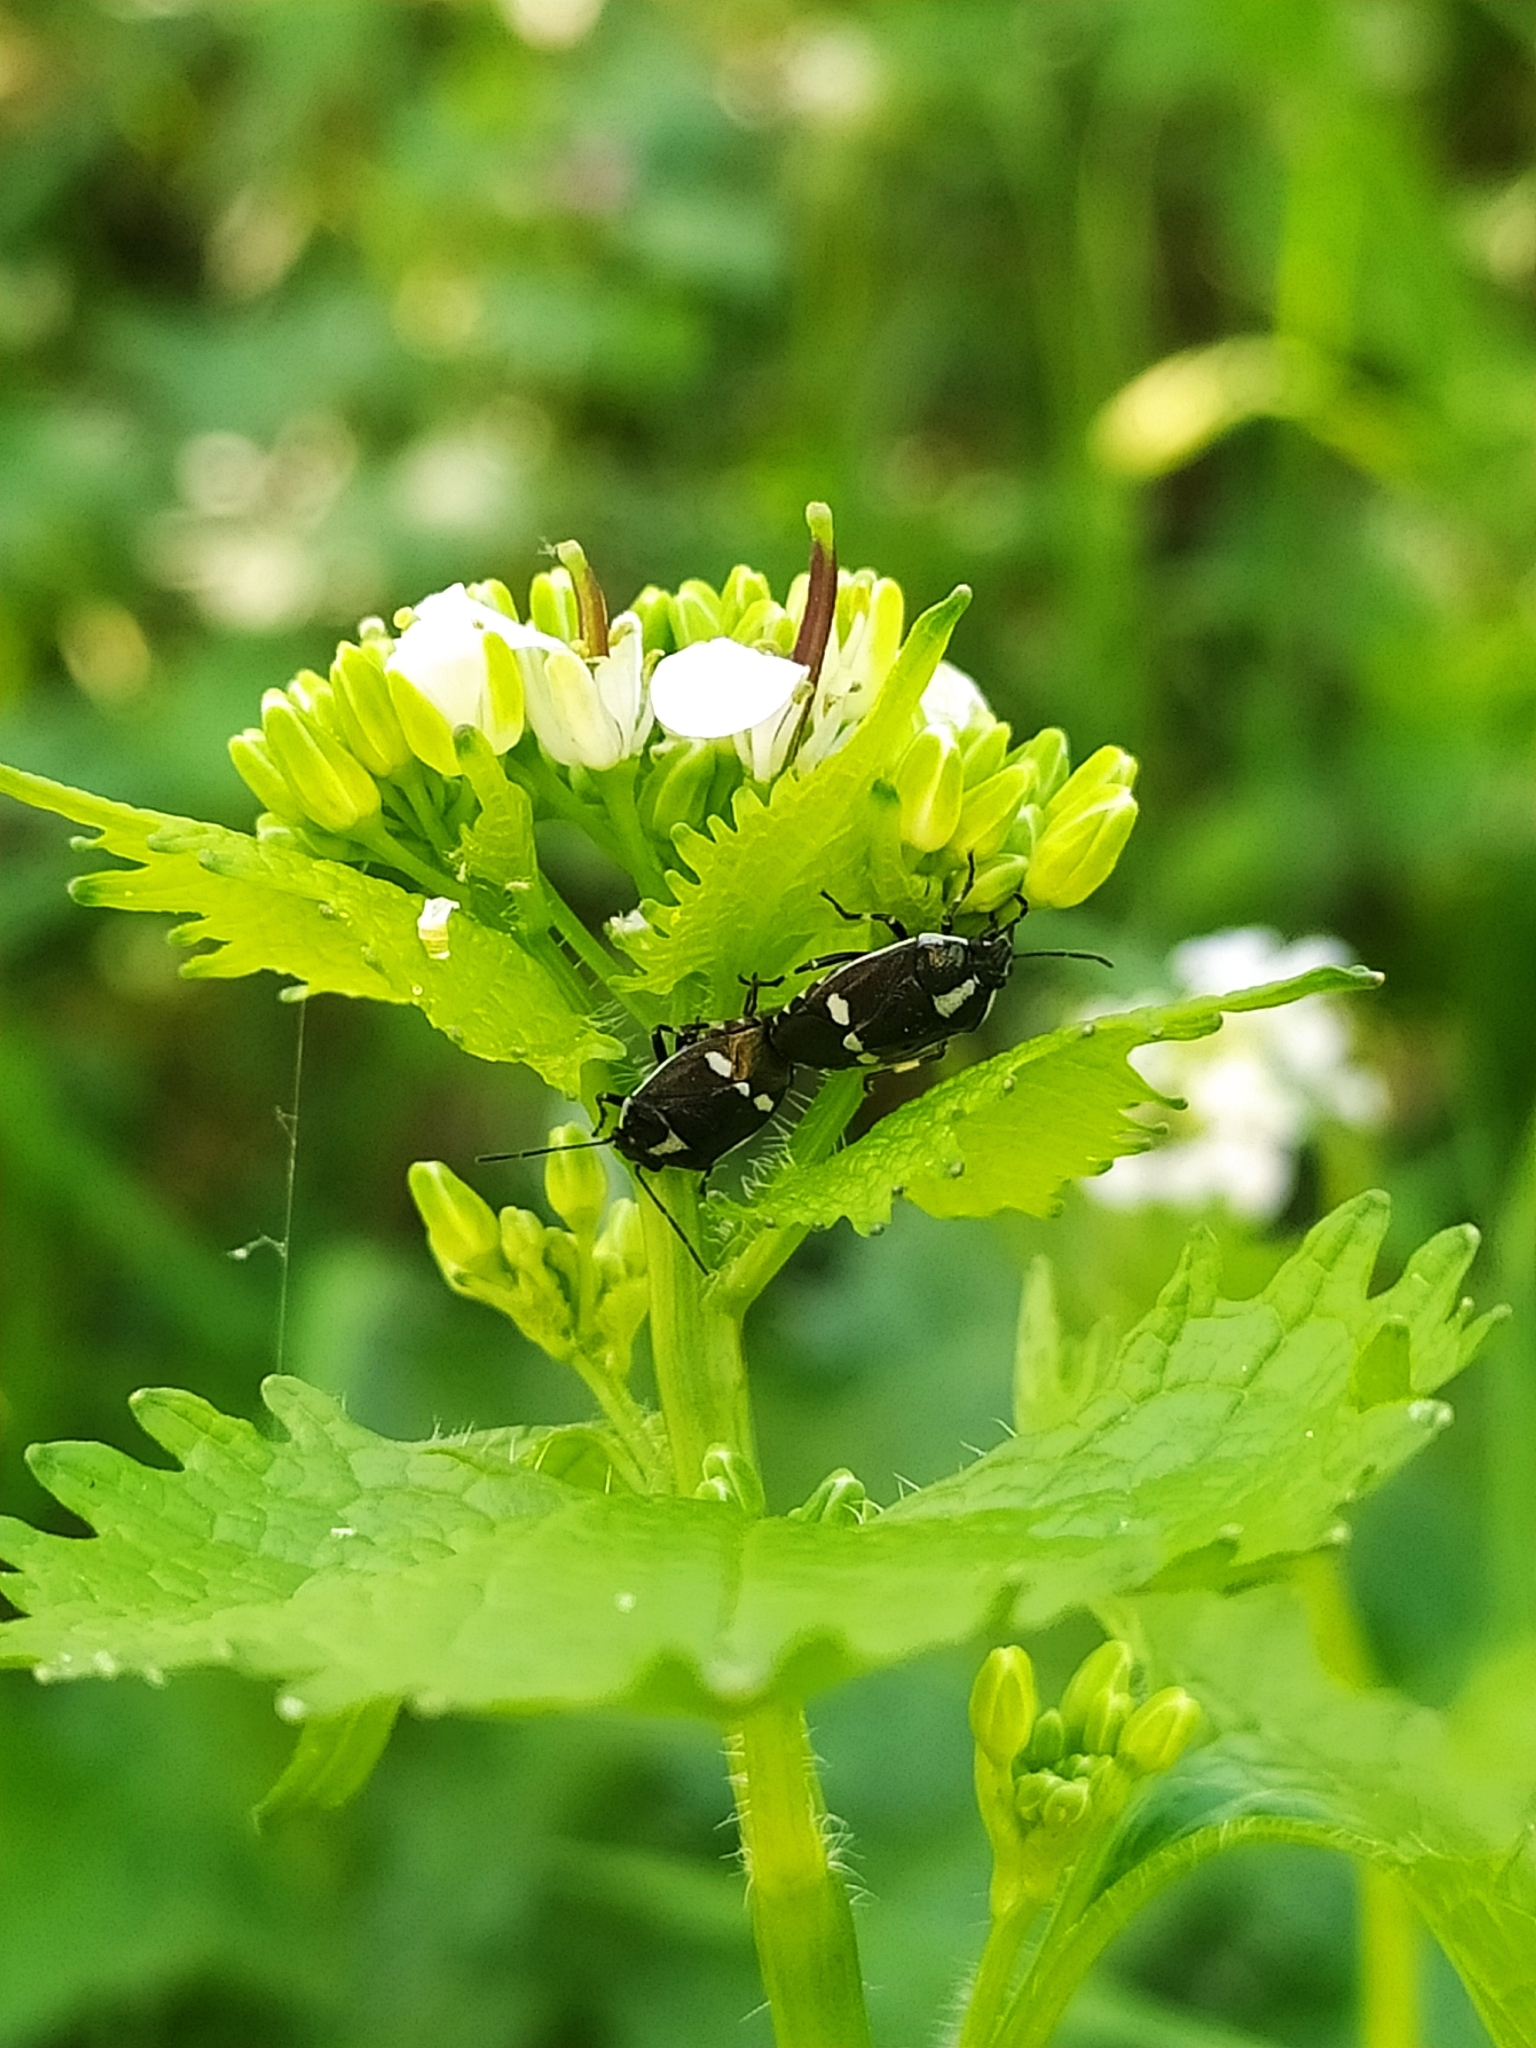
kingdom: Animalia
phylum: Arthropoda
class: Insecta
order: Hemiptera
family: Pentatomidae
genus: Eurydema
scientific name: Eurydema oleracea
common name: Cabbage bug
